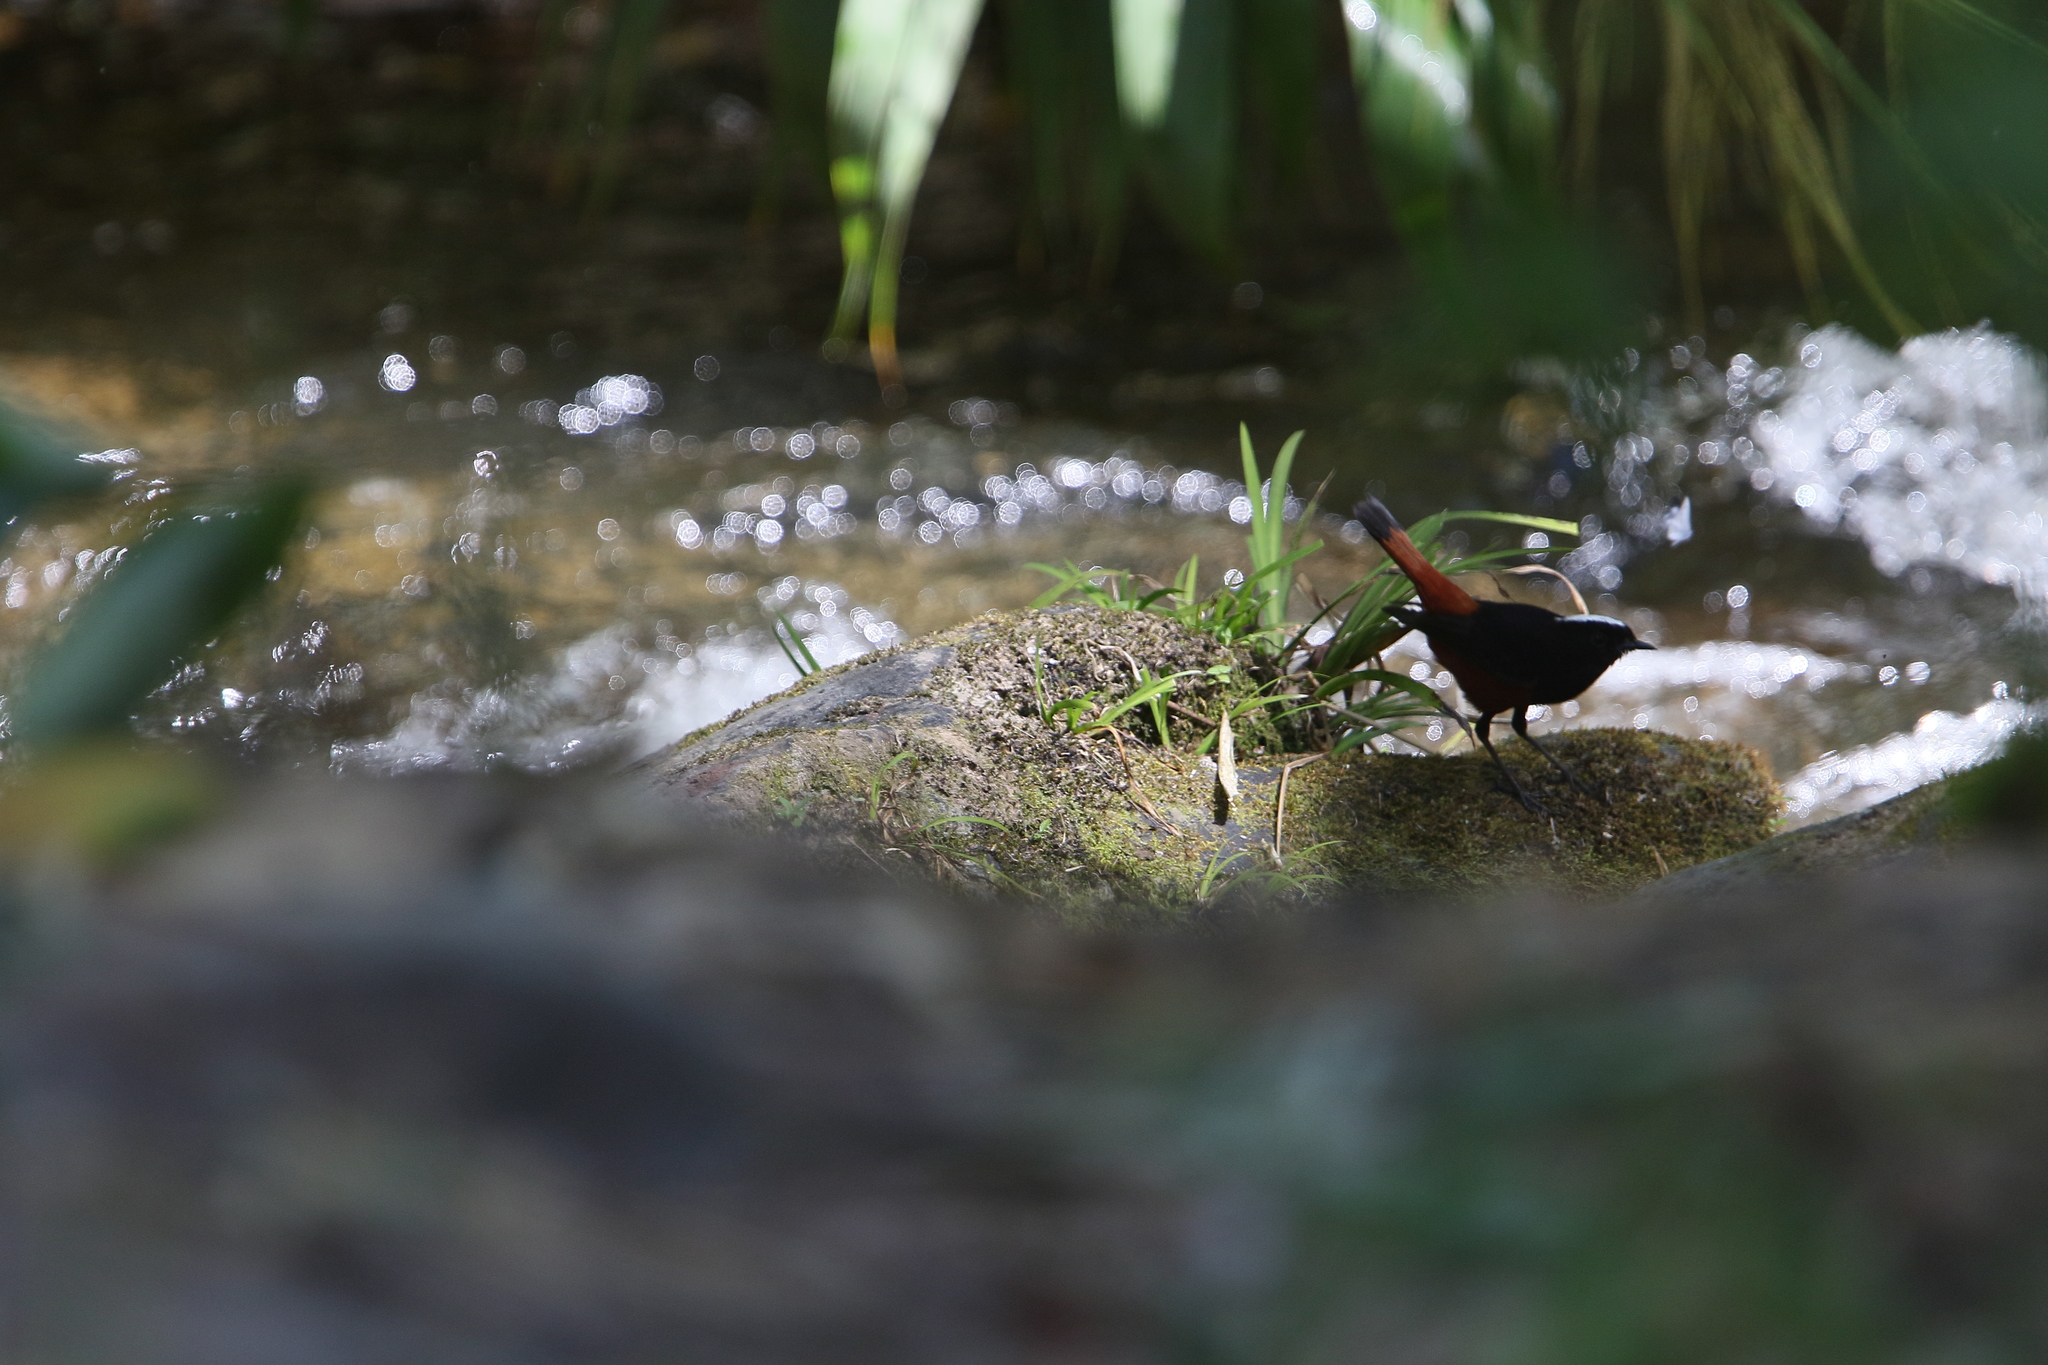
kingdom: Animalia
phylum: Chordata
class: Aves
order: Passeriformes
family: Muscicapidae
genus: Chaimarrornis
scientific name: Chaimarrornis leucocephalus
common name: White-capped redstart
